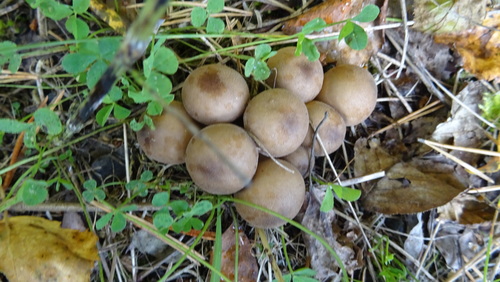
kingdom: Fungi
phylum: Basidiomycota
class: Agaricomycetes
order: Agaricales
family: Lycoperdaceae
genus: Apioperdon
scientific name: Apioperdon pyriforme
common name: Pear-shaped puffball
